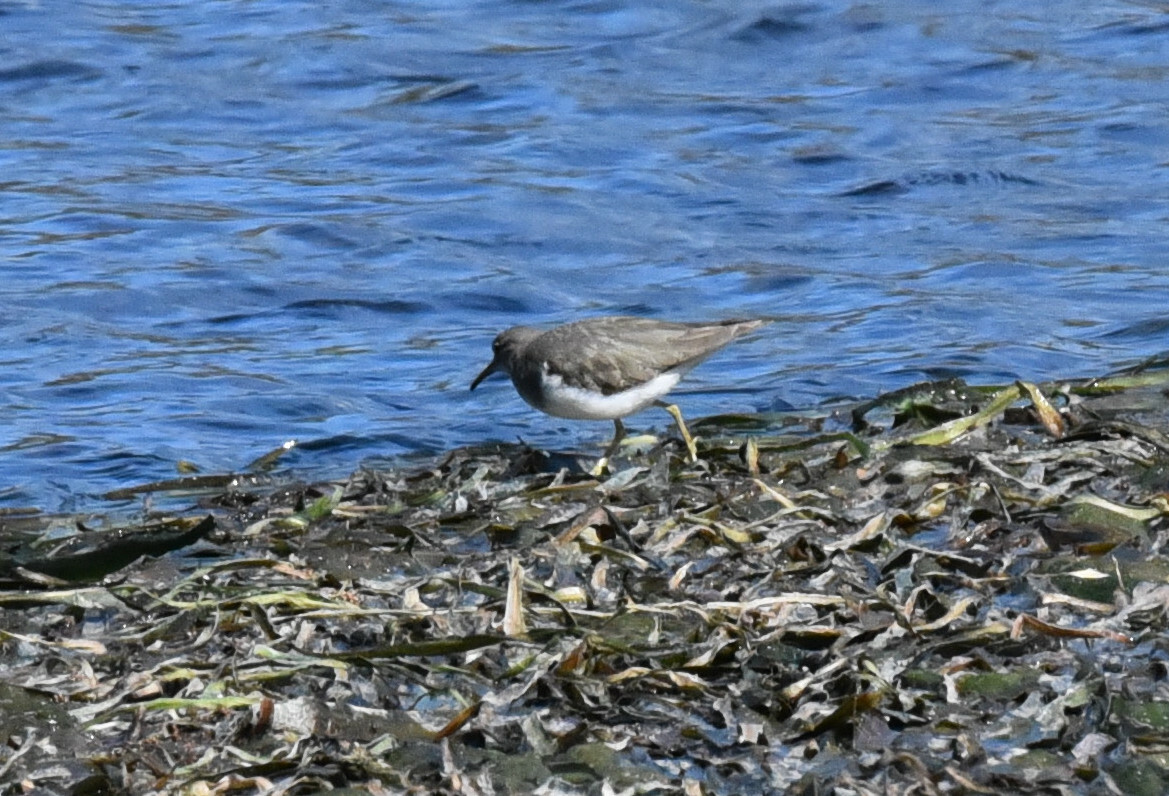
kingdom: Animalia
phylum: Chordata
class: Aves
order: Charadriiformes
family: Scolopacidae
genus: Actitis
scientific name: Actitis macularius
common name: Spotted sandpiper
